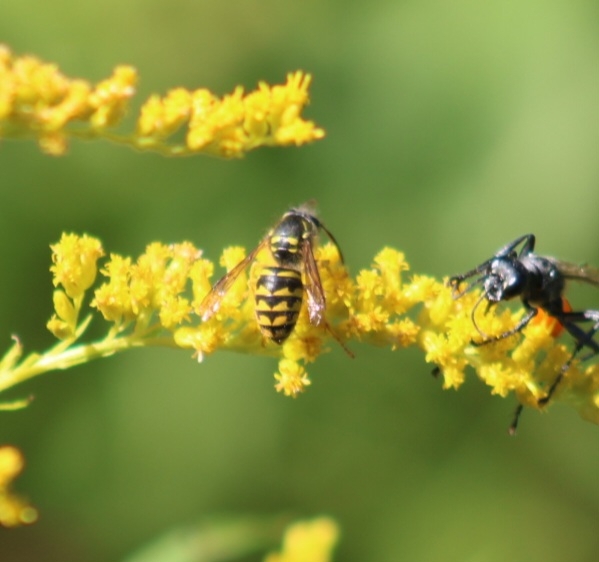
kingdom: Animalia
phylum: Arthropoda
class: Insecta
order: Hymenoptera
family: Vespidae
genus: Dolichovespula
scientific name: Dolichovespula arenaria
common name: Aerial yellowjacket
